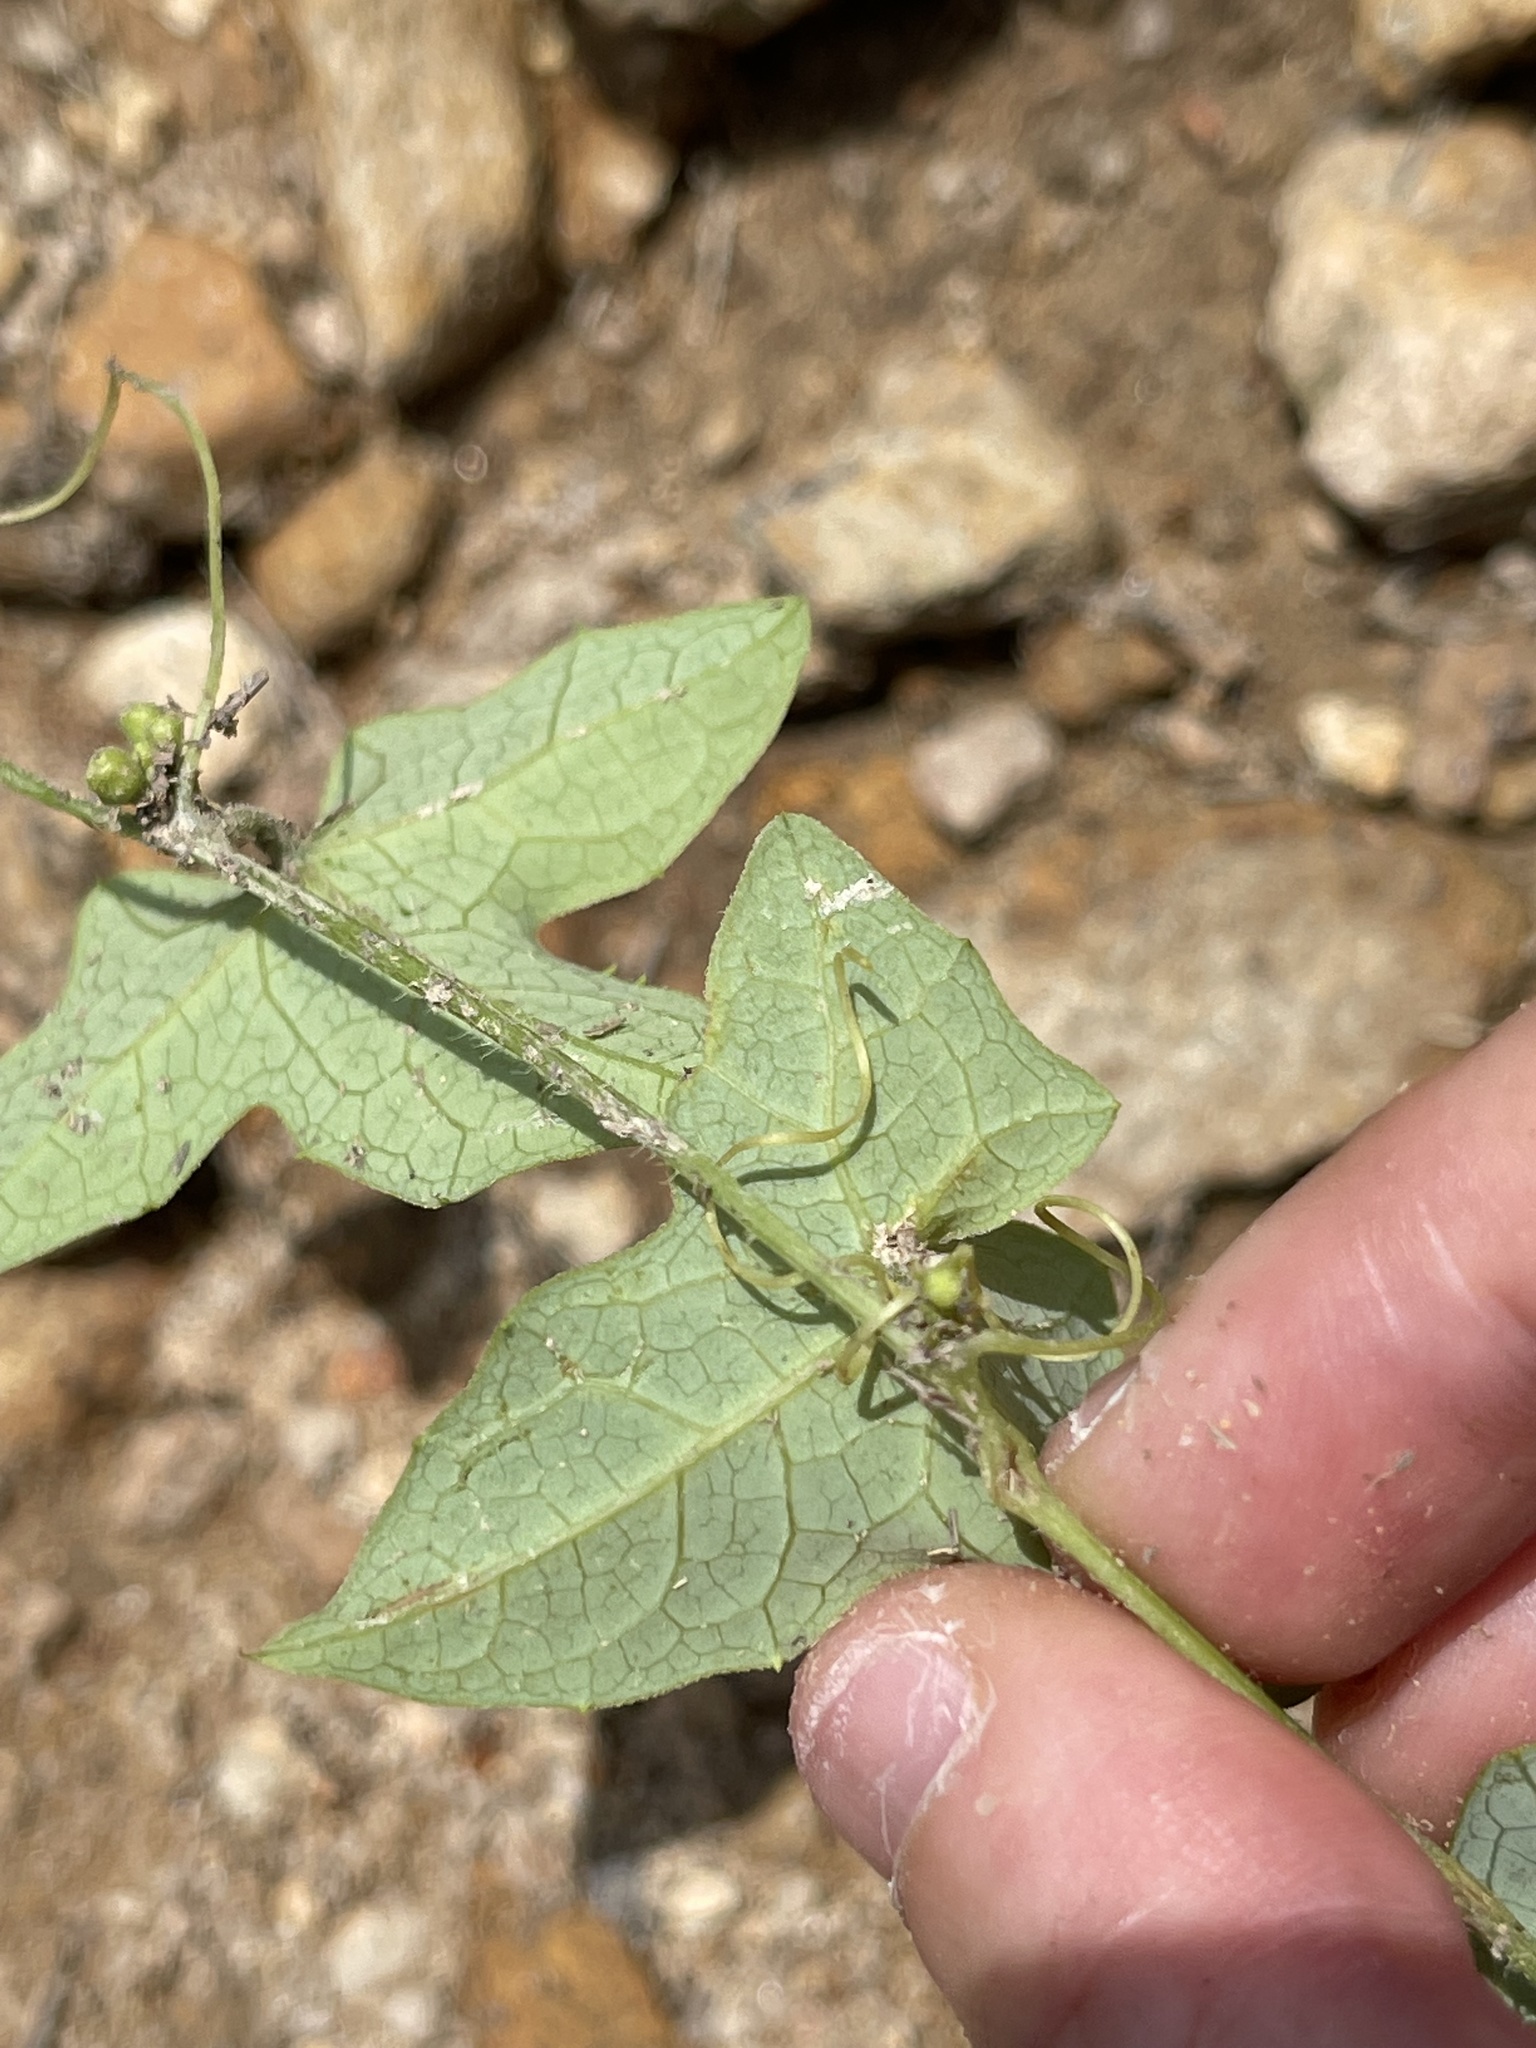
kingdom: Plantae
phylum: Tracheophyta
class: Magnoliopsida
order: Cucurbitales
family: Cucurbitaceae
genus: Solena
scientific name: Solena amplexicaulis
